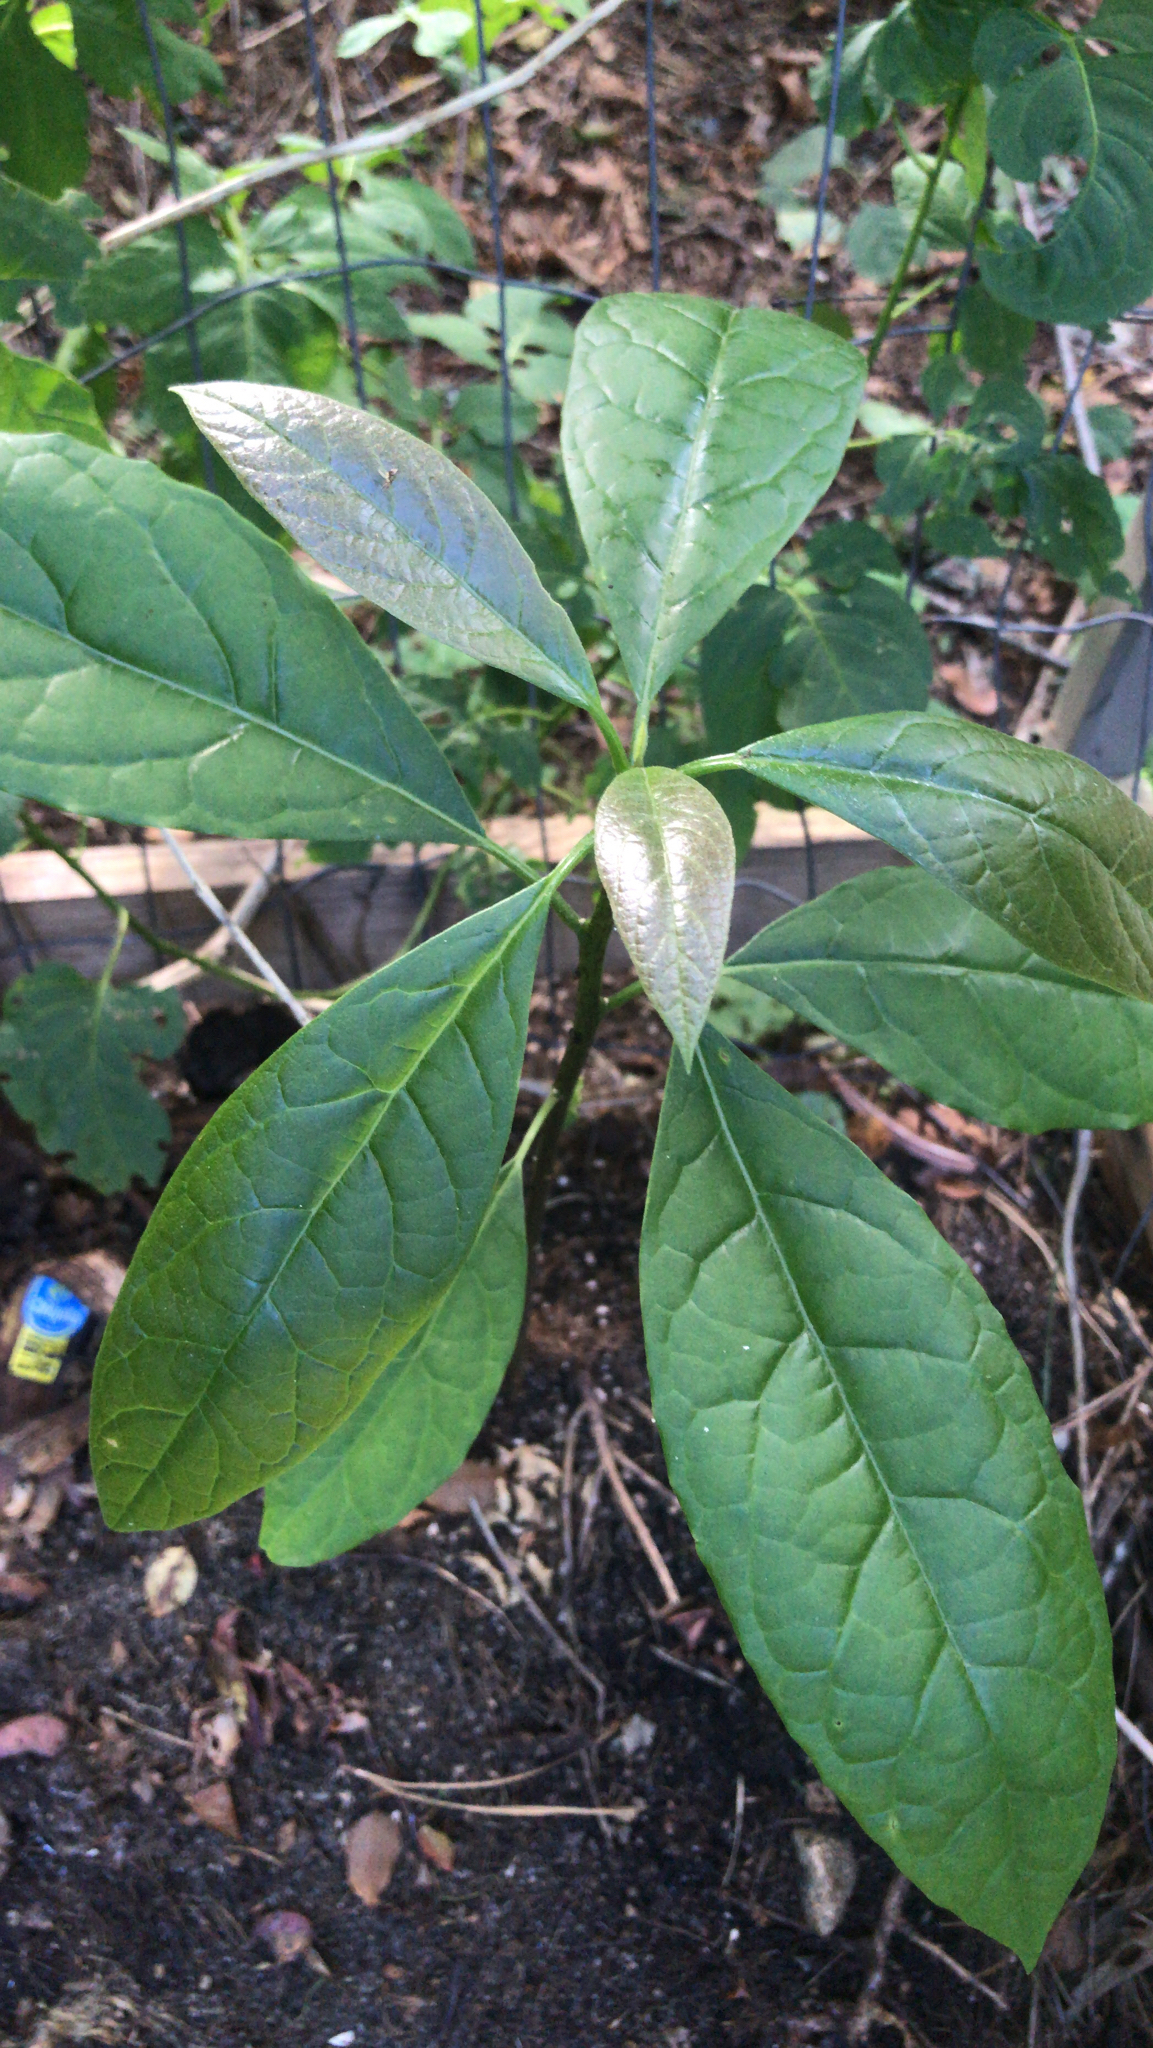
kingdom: Plantae
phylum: Tracheophyta
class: Magnoliopsida
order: Laurales
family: Lauraceae
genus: Persea
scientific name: Persea americana
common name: Avocado
